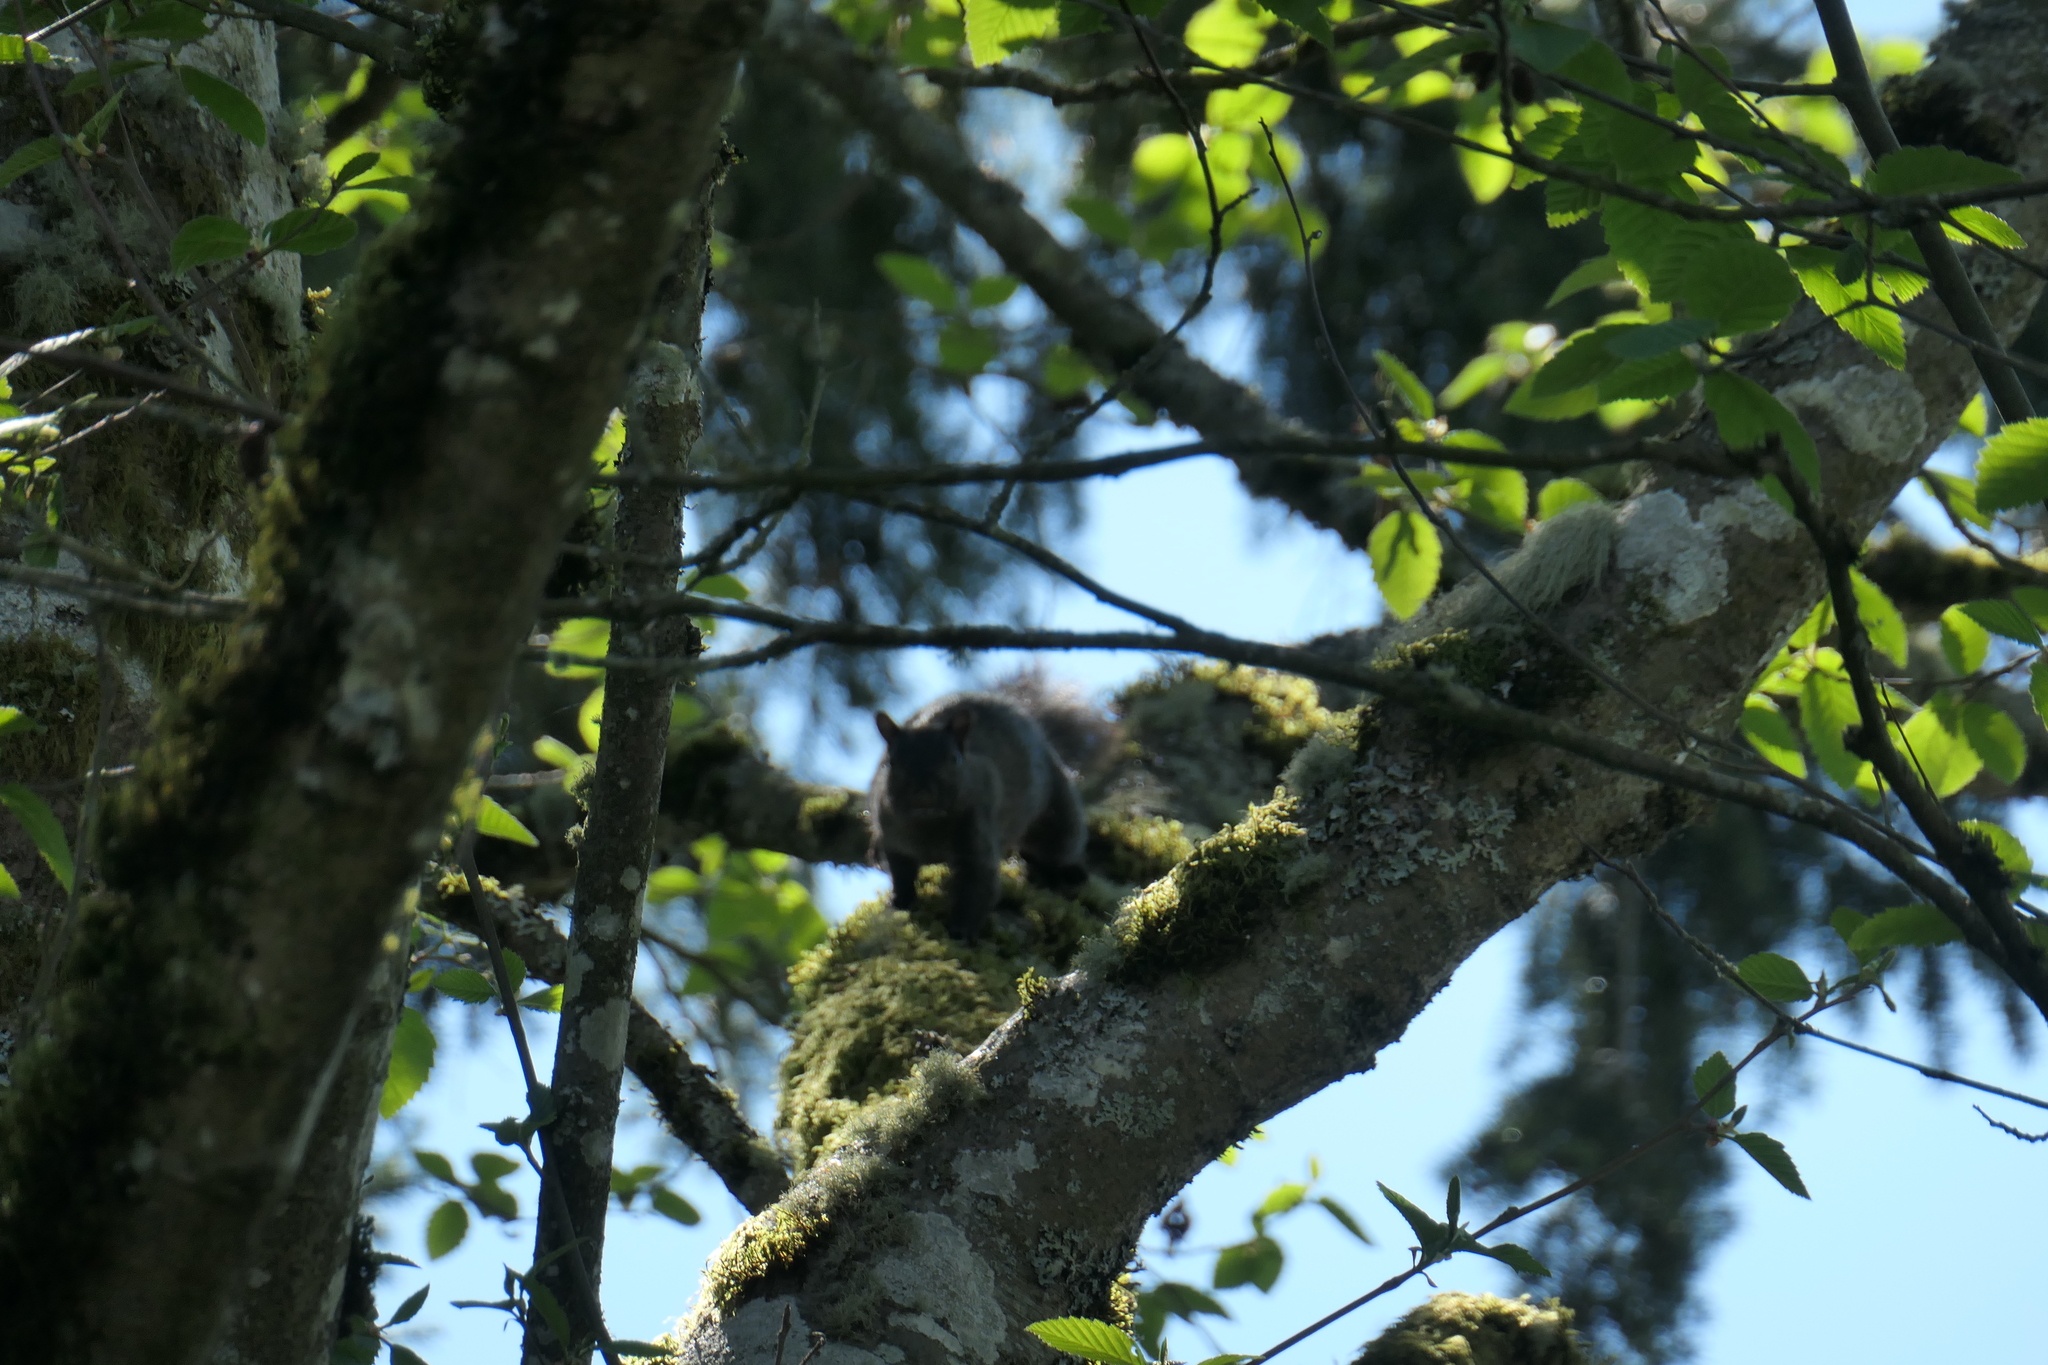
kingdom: Animalia
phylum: Chordata
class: Mammalia
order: Rodentia
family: Sciuridae
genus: Sciurus
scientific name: Sciurus carolinensis
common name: Eastern gray squirrel
